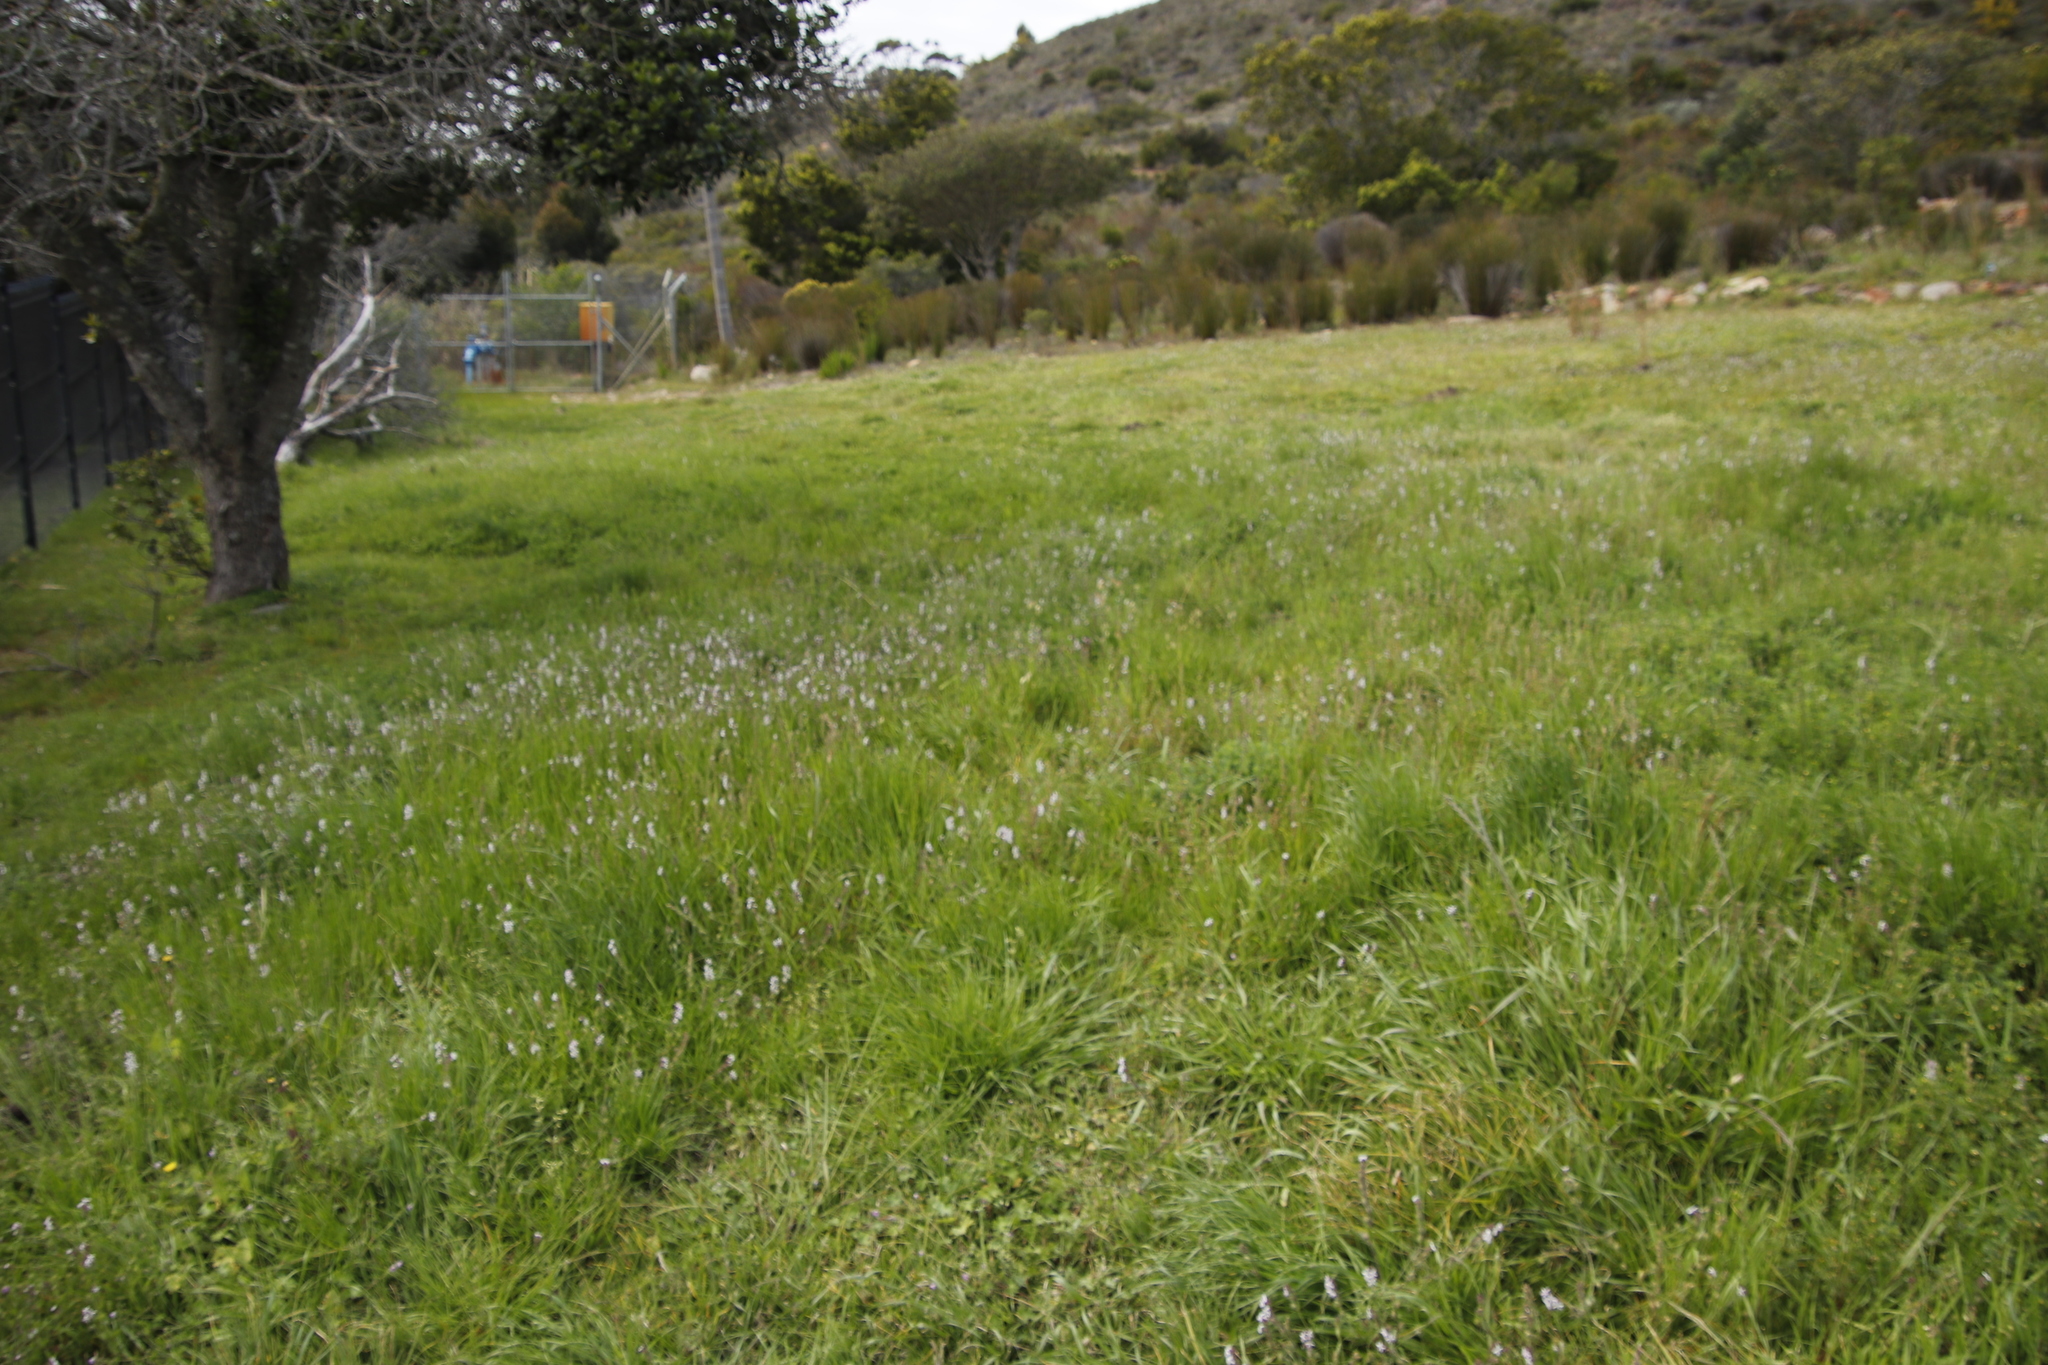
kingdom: Plantae
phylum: Tracheophyta
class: Magnoliopsida
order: Caryophyllales
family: Caryophyllaceae
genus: Silene
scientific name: Silene gallica
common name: Small-flowered catchfly
